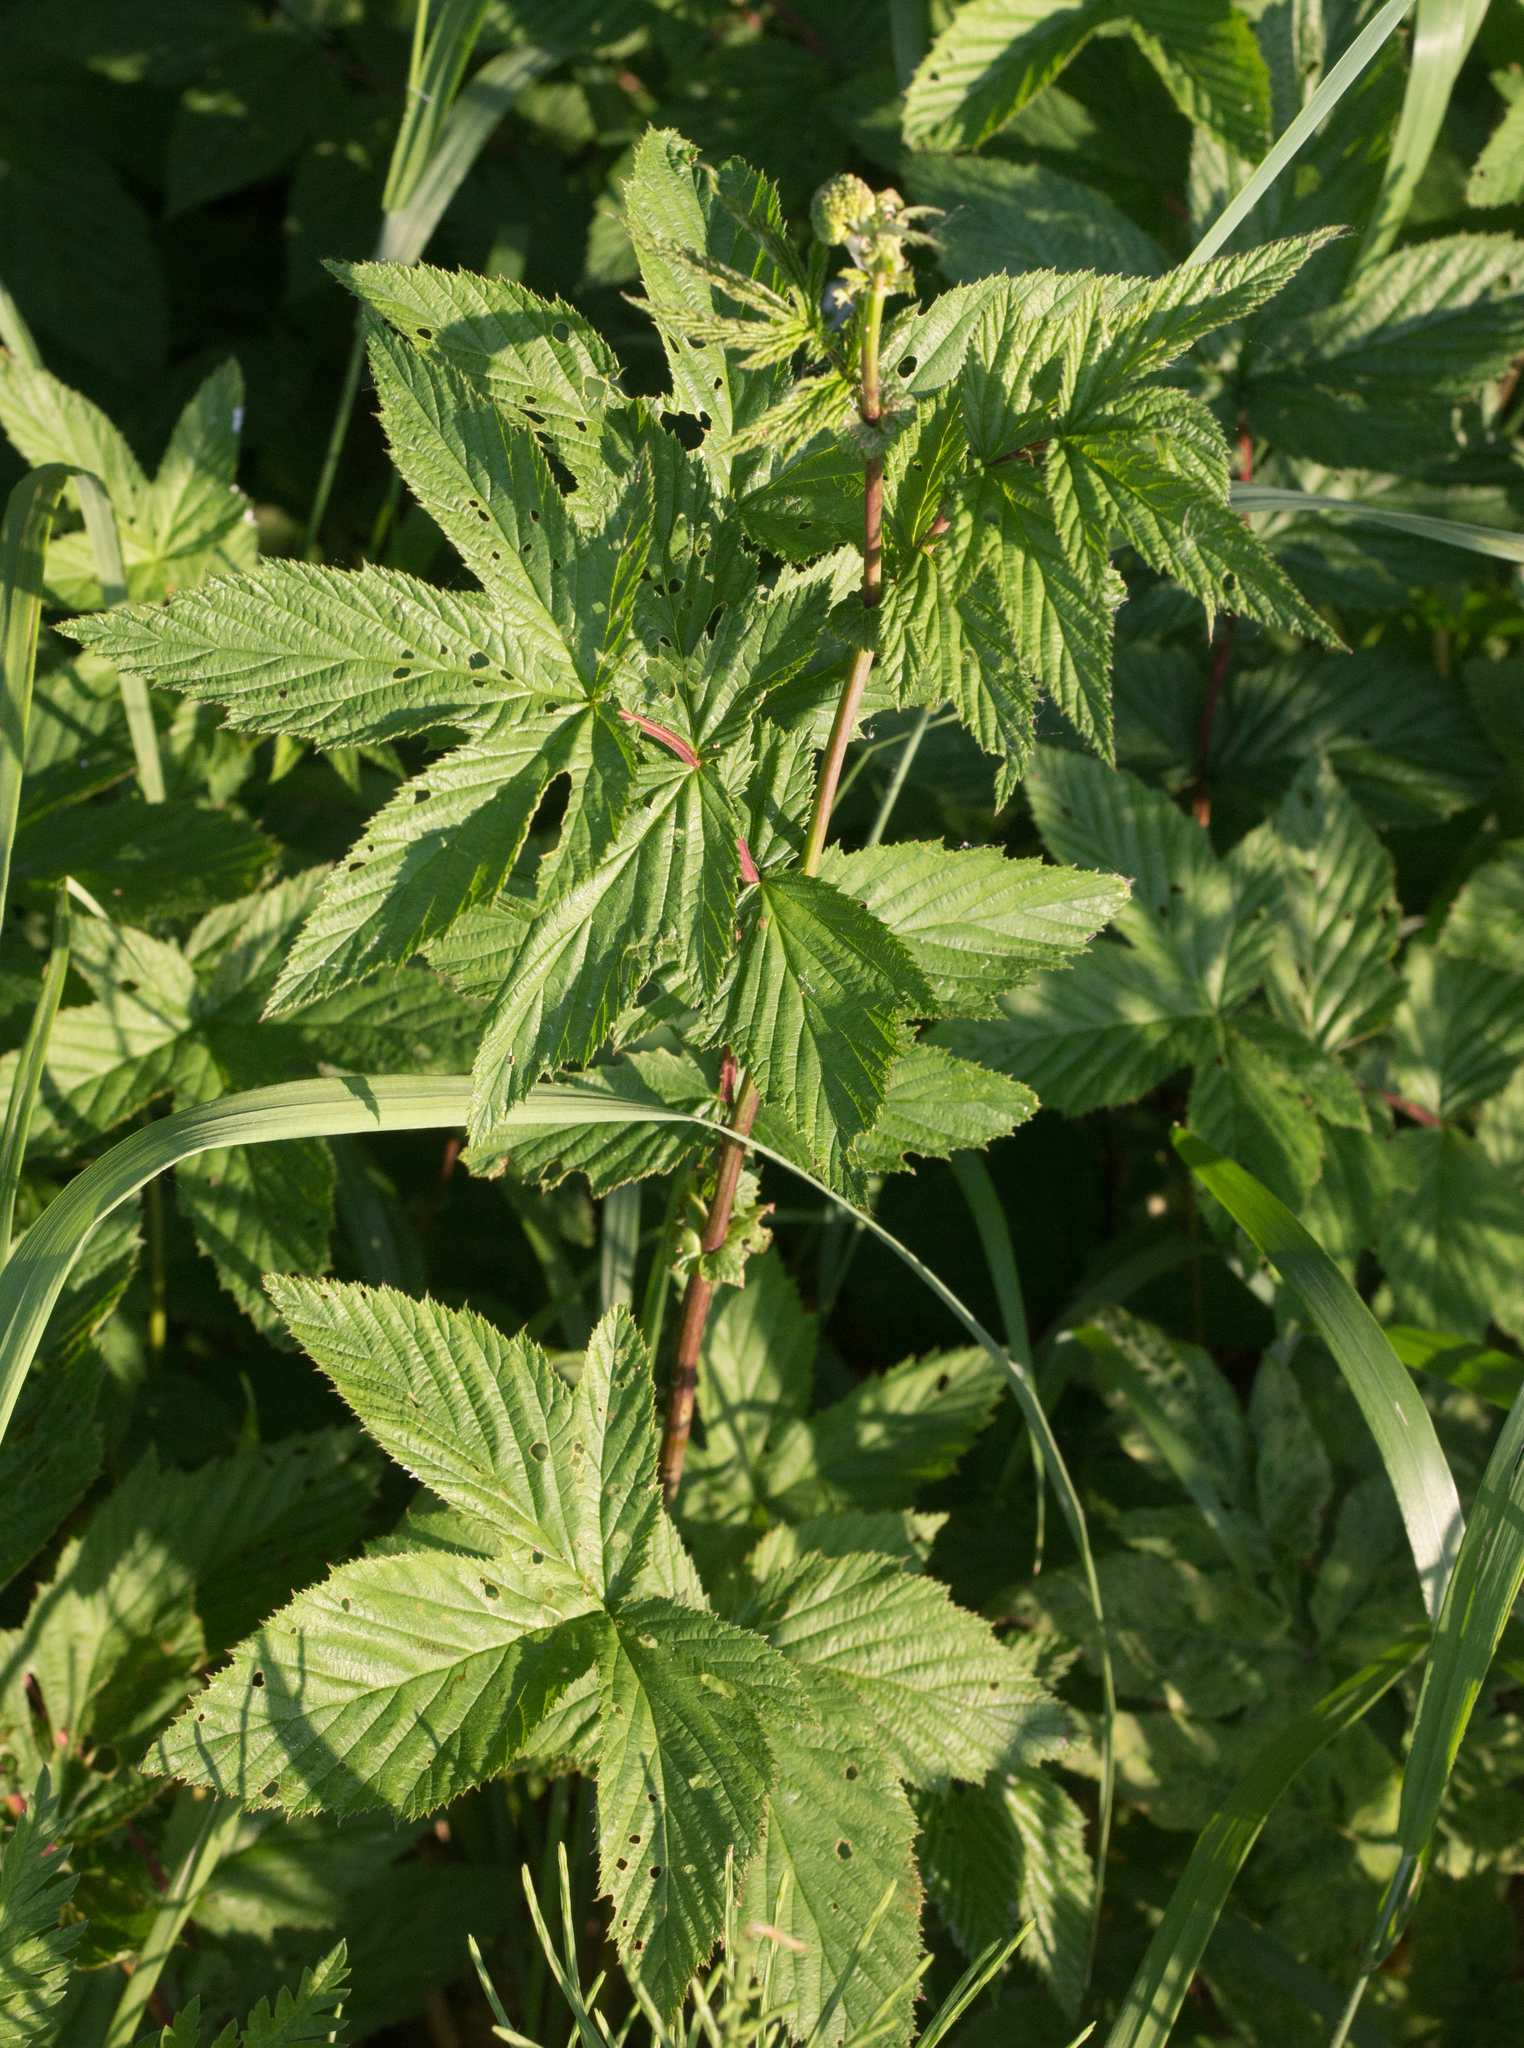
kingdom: Plantae
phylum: Tracheophyta
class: Magnoliopsida
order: Rosales
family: Rosaceae
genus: Filipendula
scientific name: Filipendula ulmaria
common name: Meadowsweet
